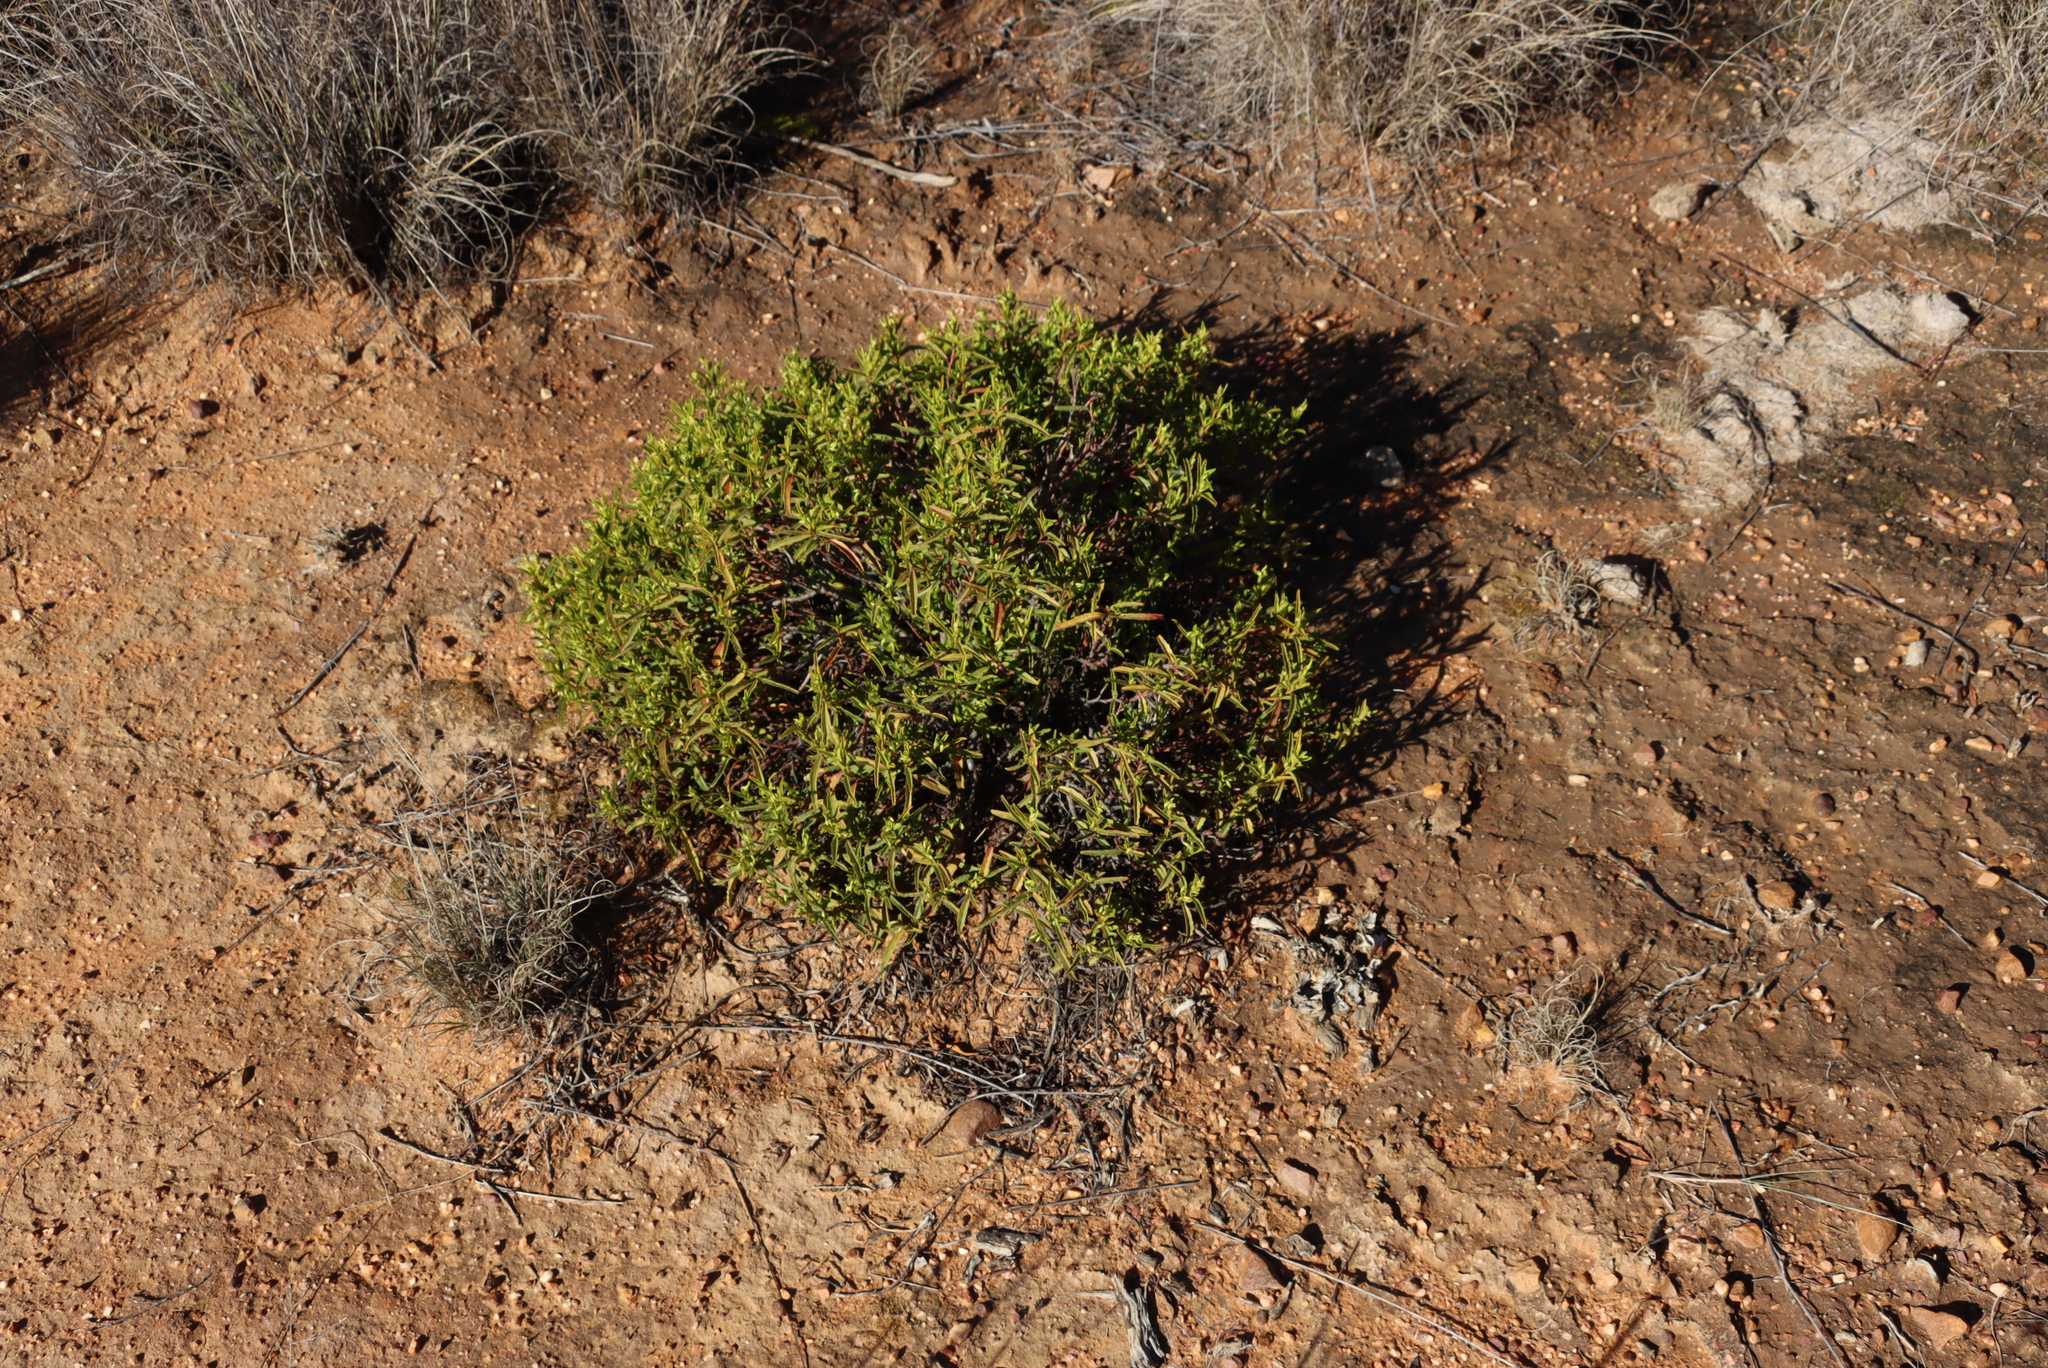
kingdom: Plantae
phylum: Tracheophyta
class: Magnoliopsida
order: Malvales
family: Malvaceae
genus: Hermannia
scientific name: Hermannia saccifera
